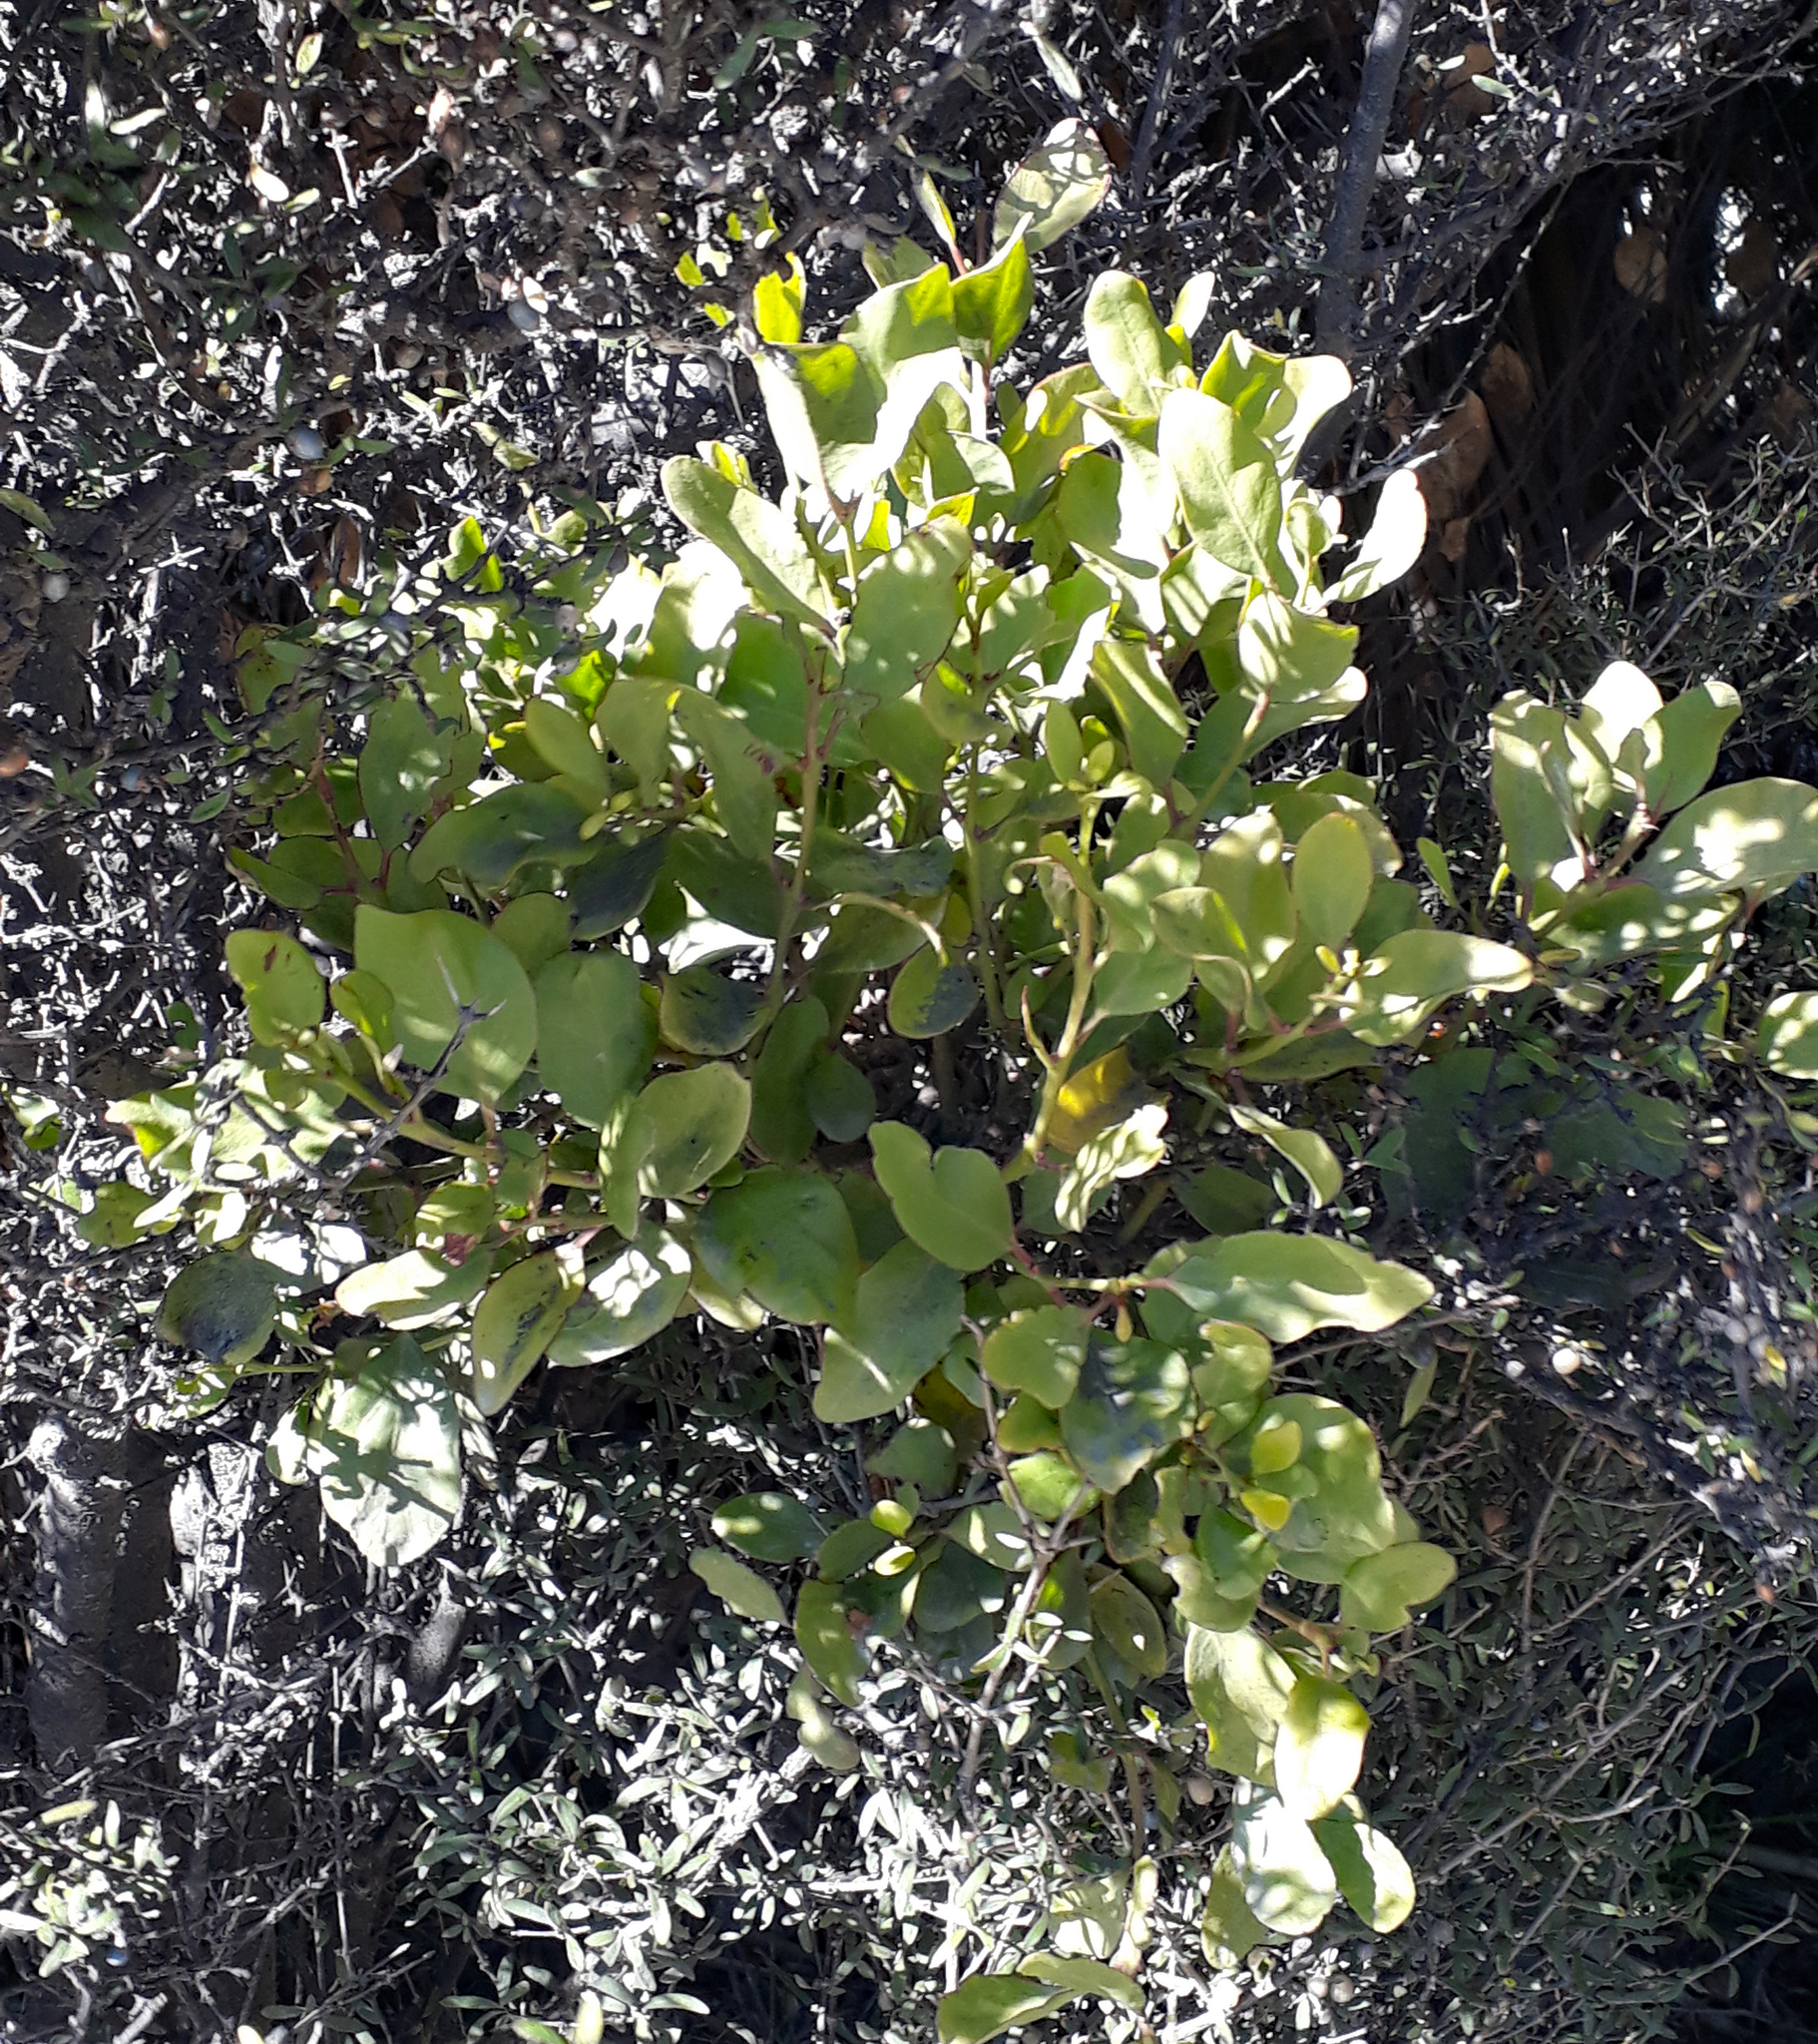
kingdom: Plantae
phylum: Tracheophyta
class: Magnoliopsida
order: Santalales
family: Loranthaceae
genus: Ileostylus
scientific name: Ileostylus micranthus
